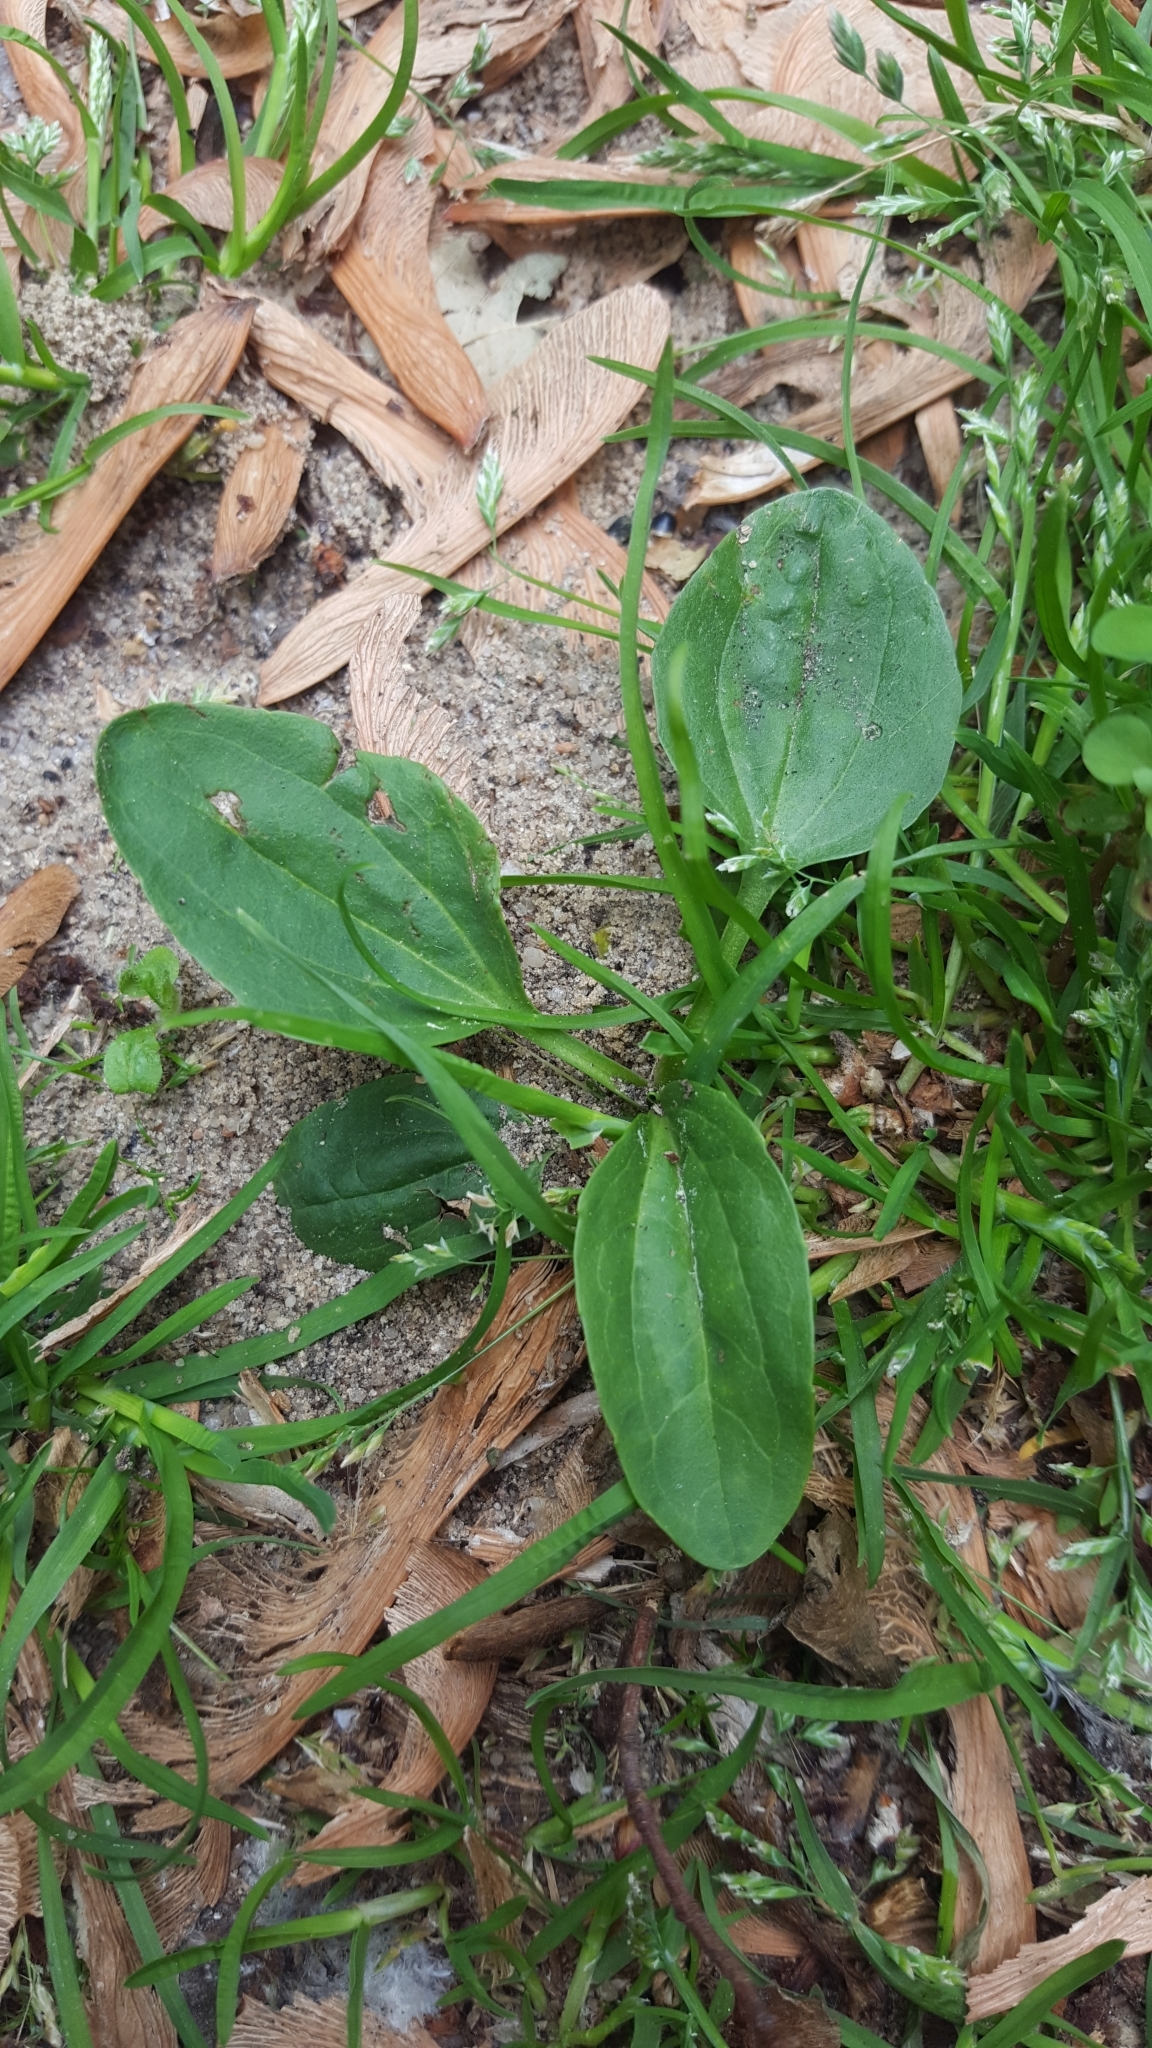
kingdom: Plantae
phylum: Tracheophyta
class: Magnoliopsida
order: Lamiales
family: Plantaginaceae
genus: Plantago
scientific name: Plantago major
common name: Common plantain
